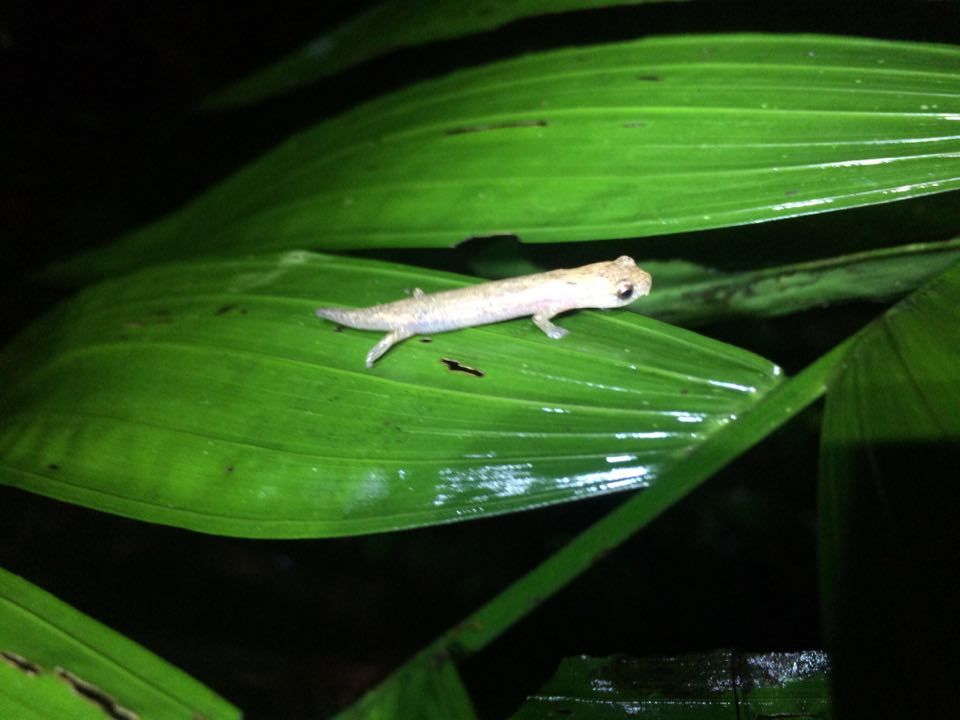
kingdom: Animalia
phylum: Chordata
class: Amphibia
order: Caudata
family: Plethodontidae
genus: Bolitoglossa
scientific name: Bolitoglossa rufescens
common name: Common dwarf salamander
